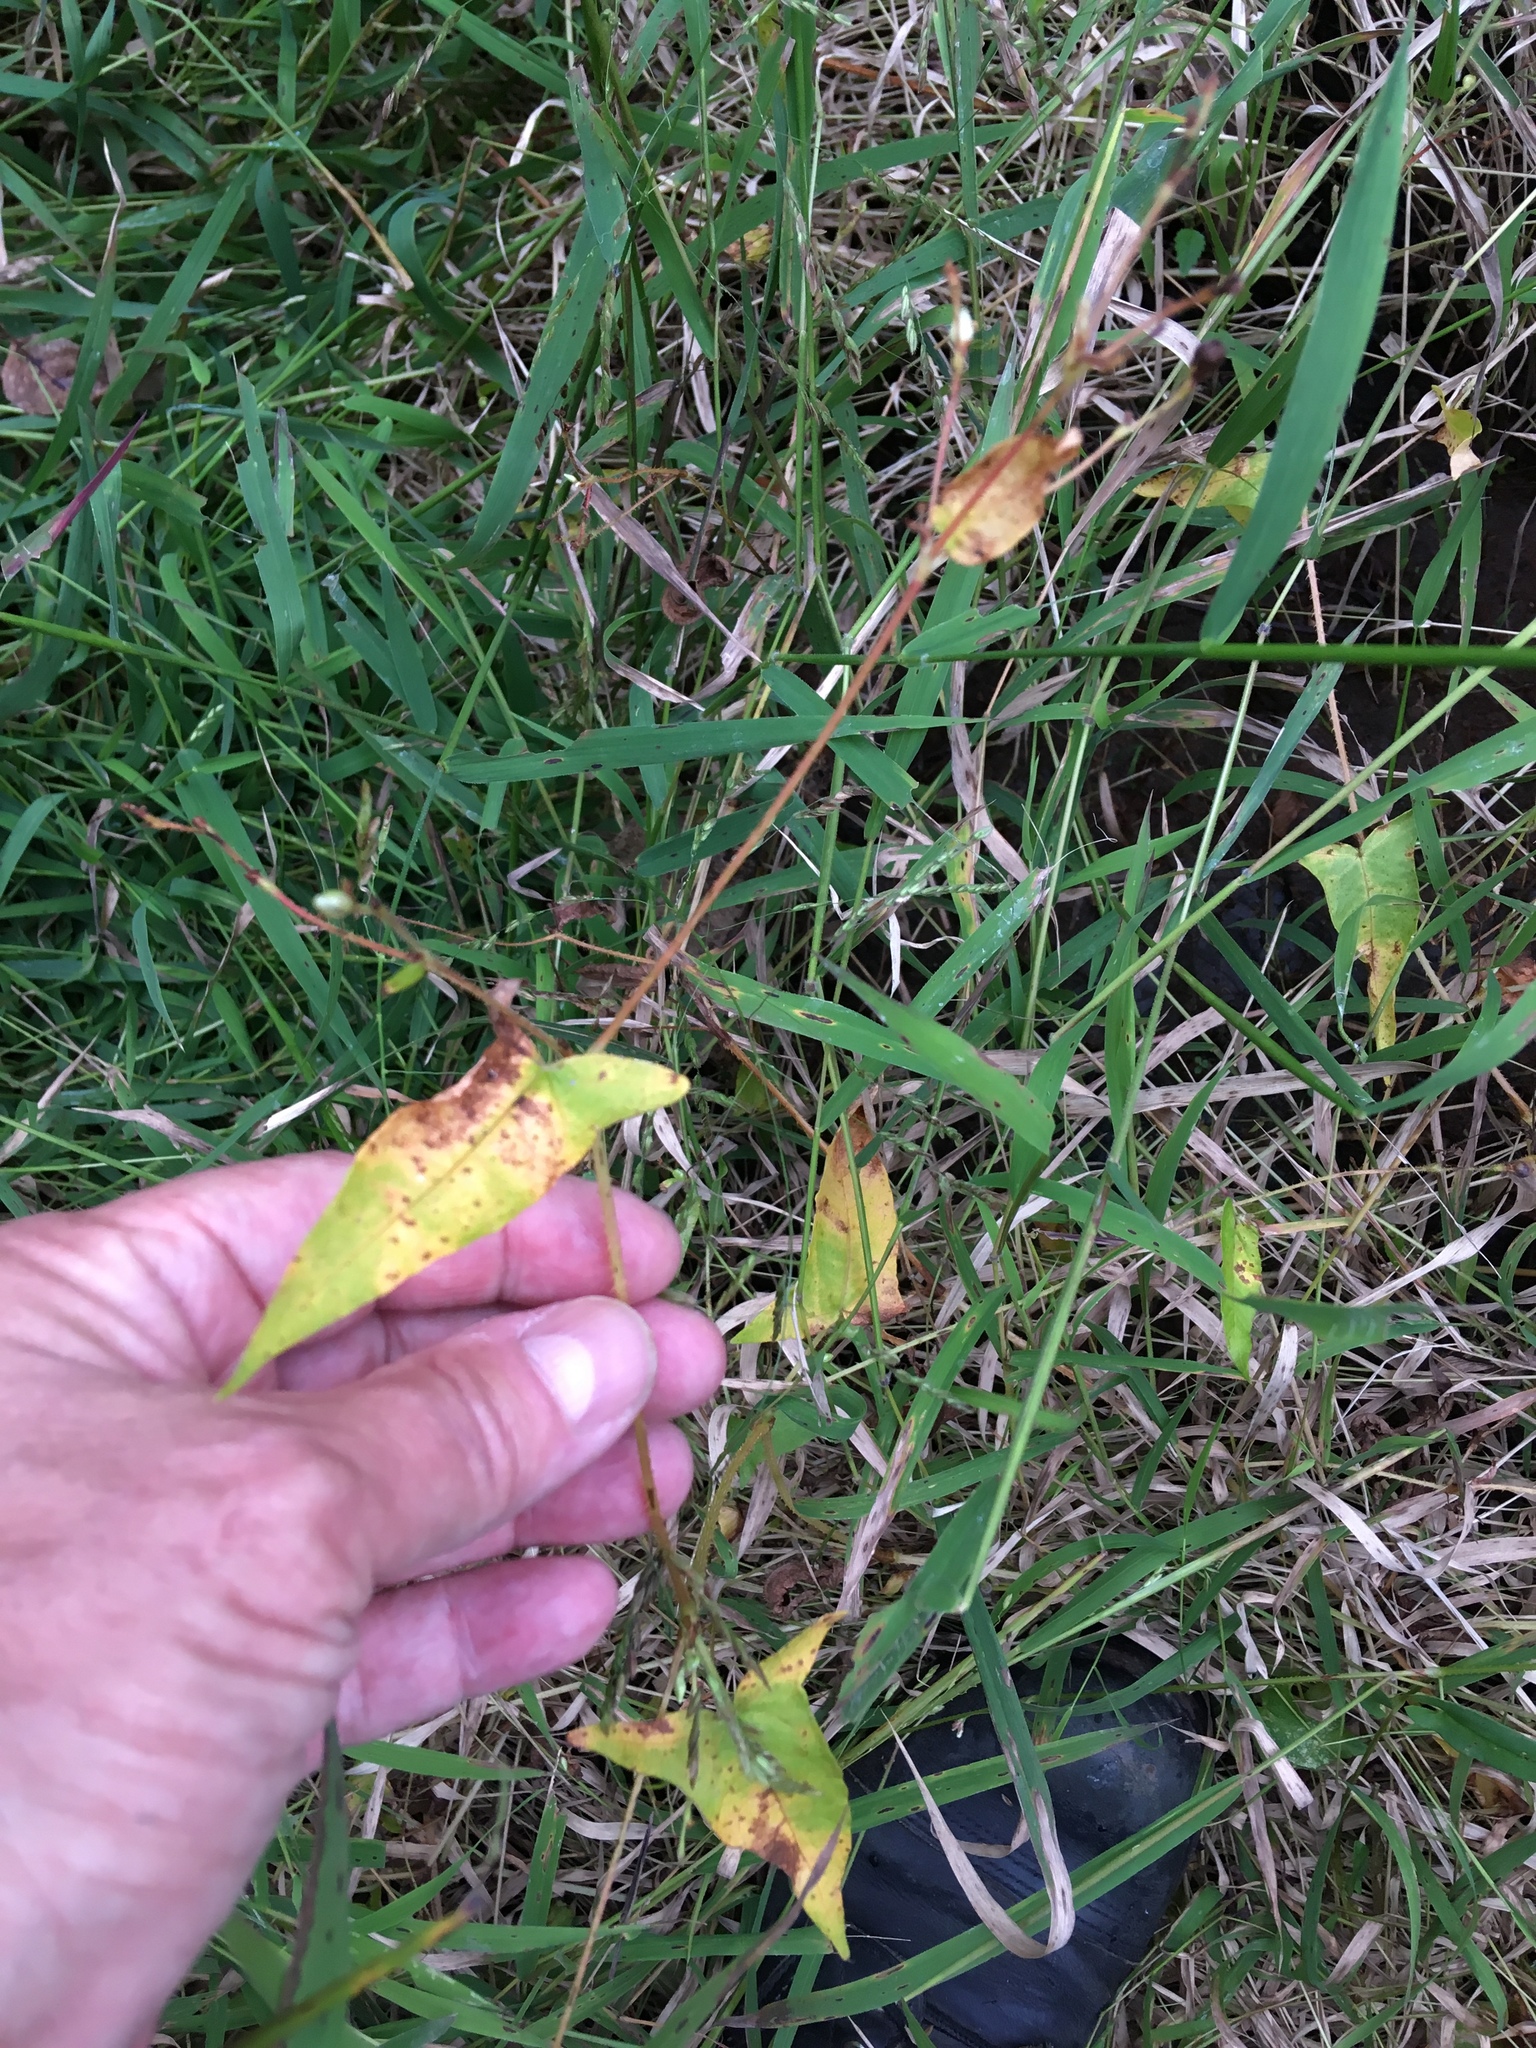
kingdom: Plantae
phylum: Tracheophyta
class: Magnoliopsida
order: Caryophyllales
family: Polygonaceae
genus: Persicaria
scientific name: Persicaria arifolia
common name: Halberd-leaved tear-thumb
